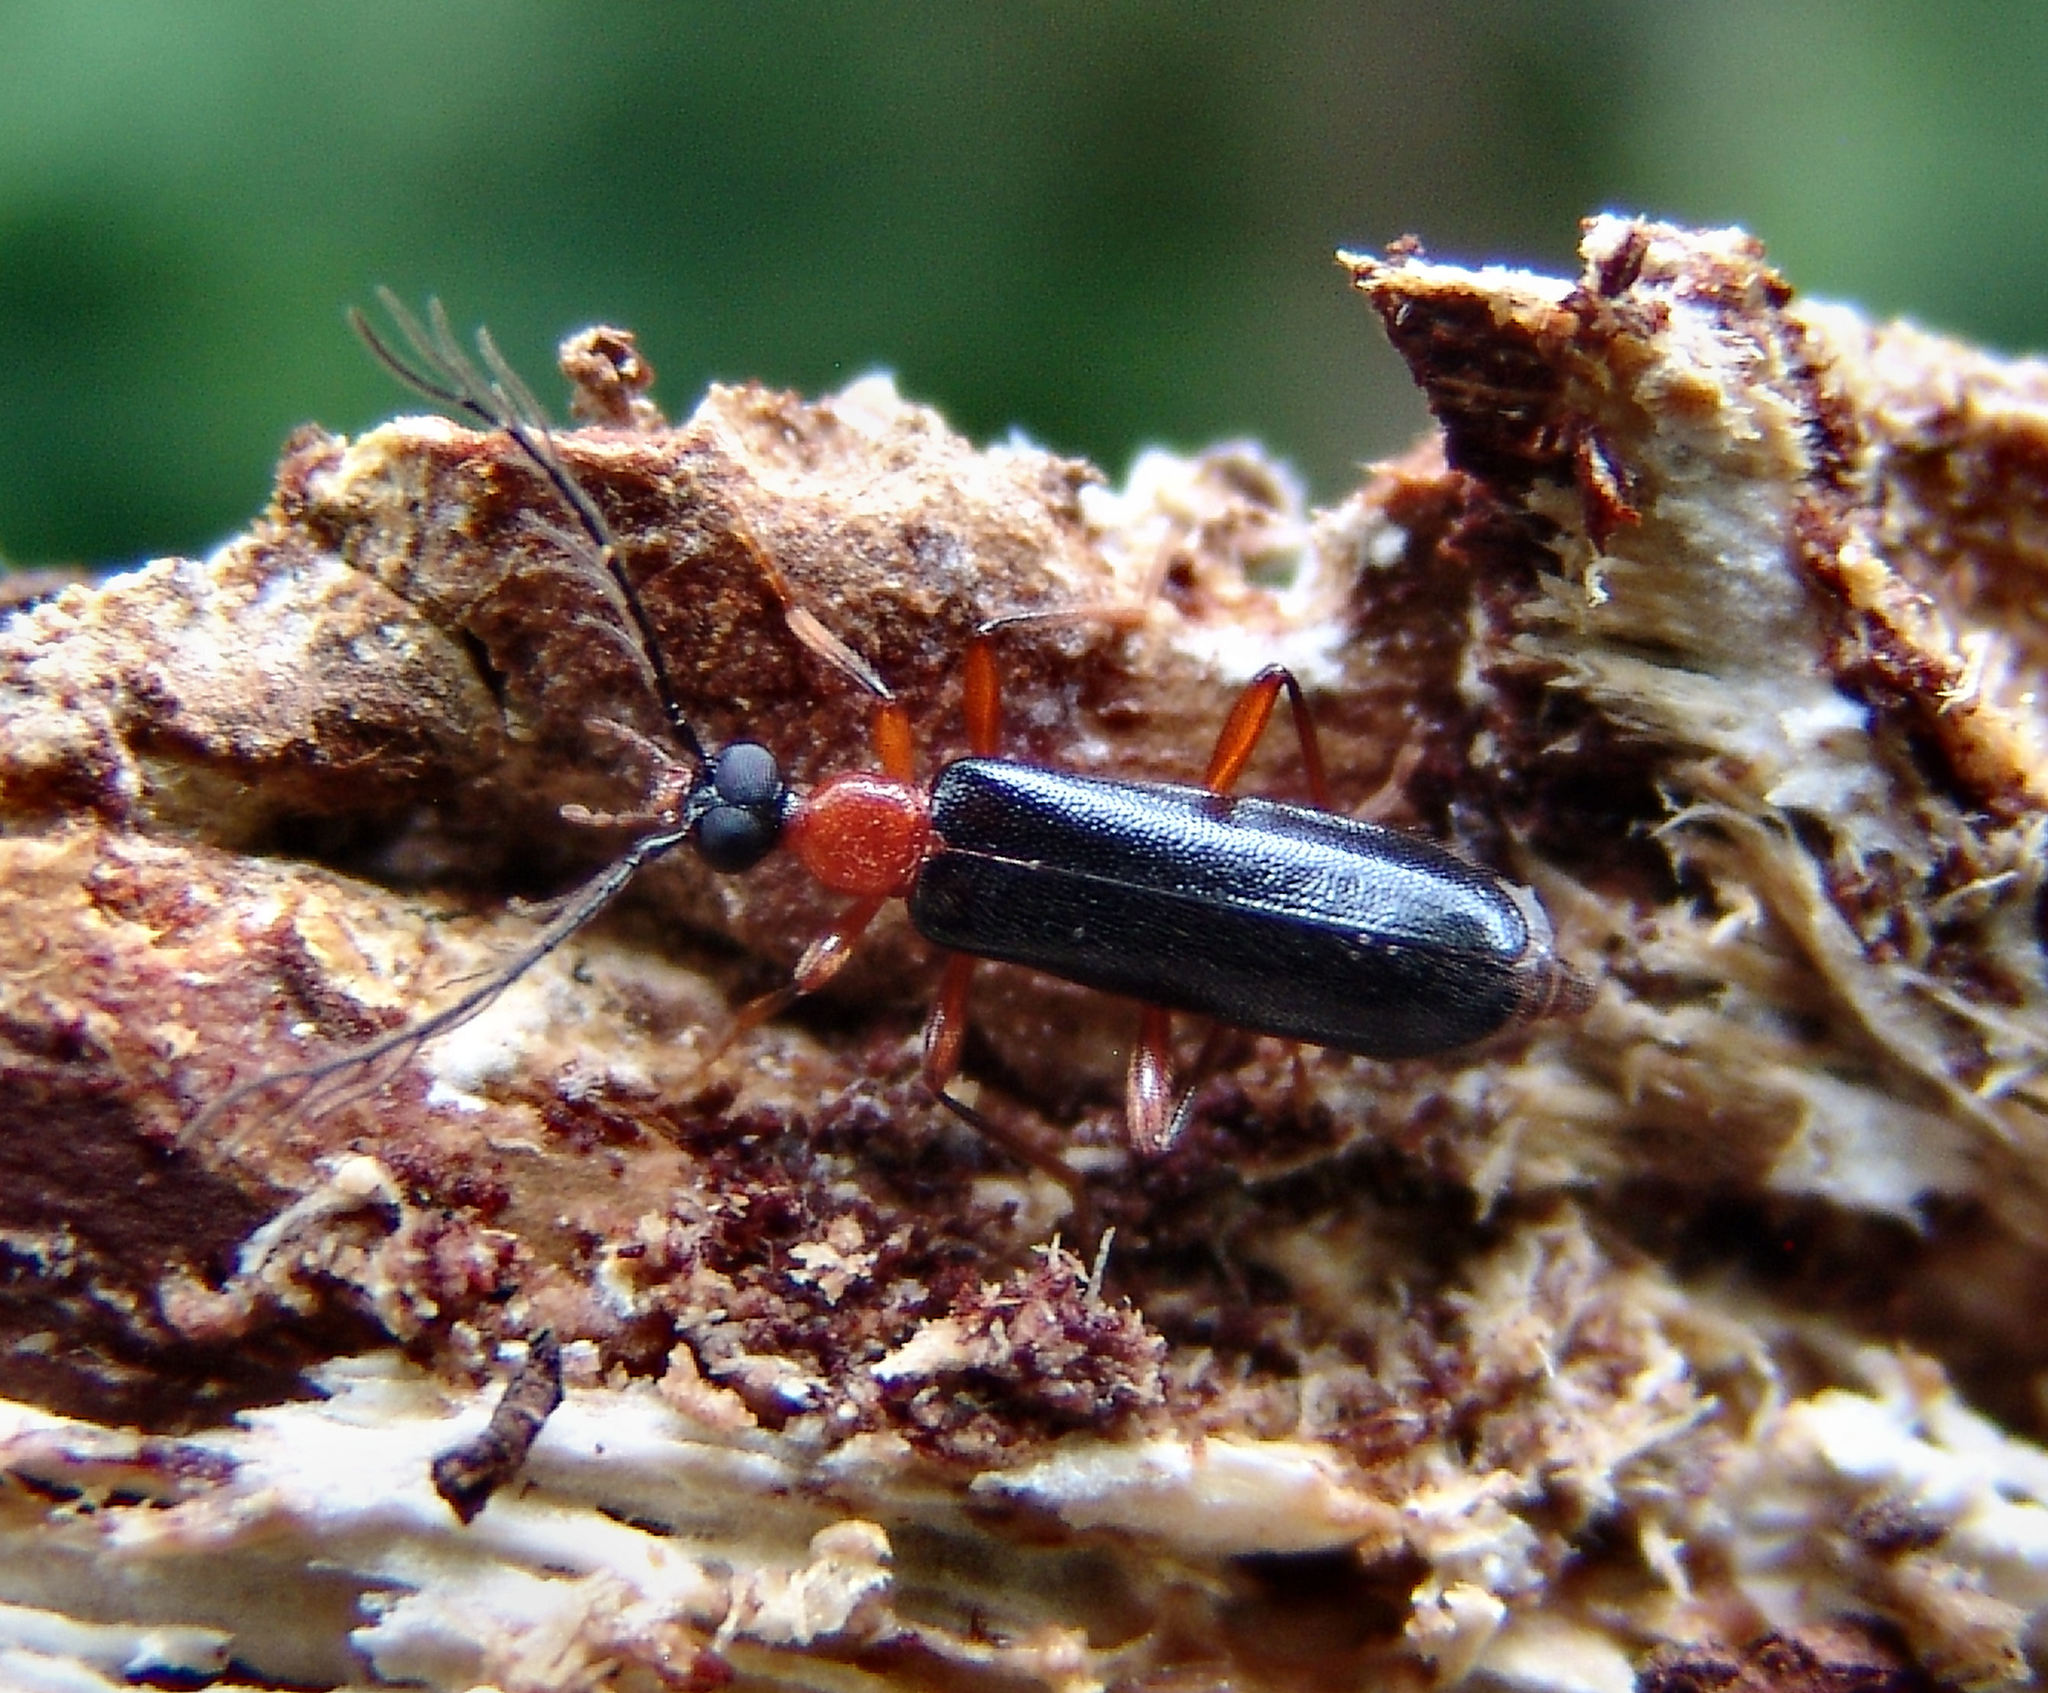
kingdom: Animalia
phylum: Arthropoda
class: Insecta
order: Coleoptera
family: Pyrochroidae
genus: Dendroides
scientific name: Dendroides canadensis
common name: Canada fire-colored beetle
